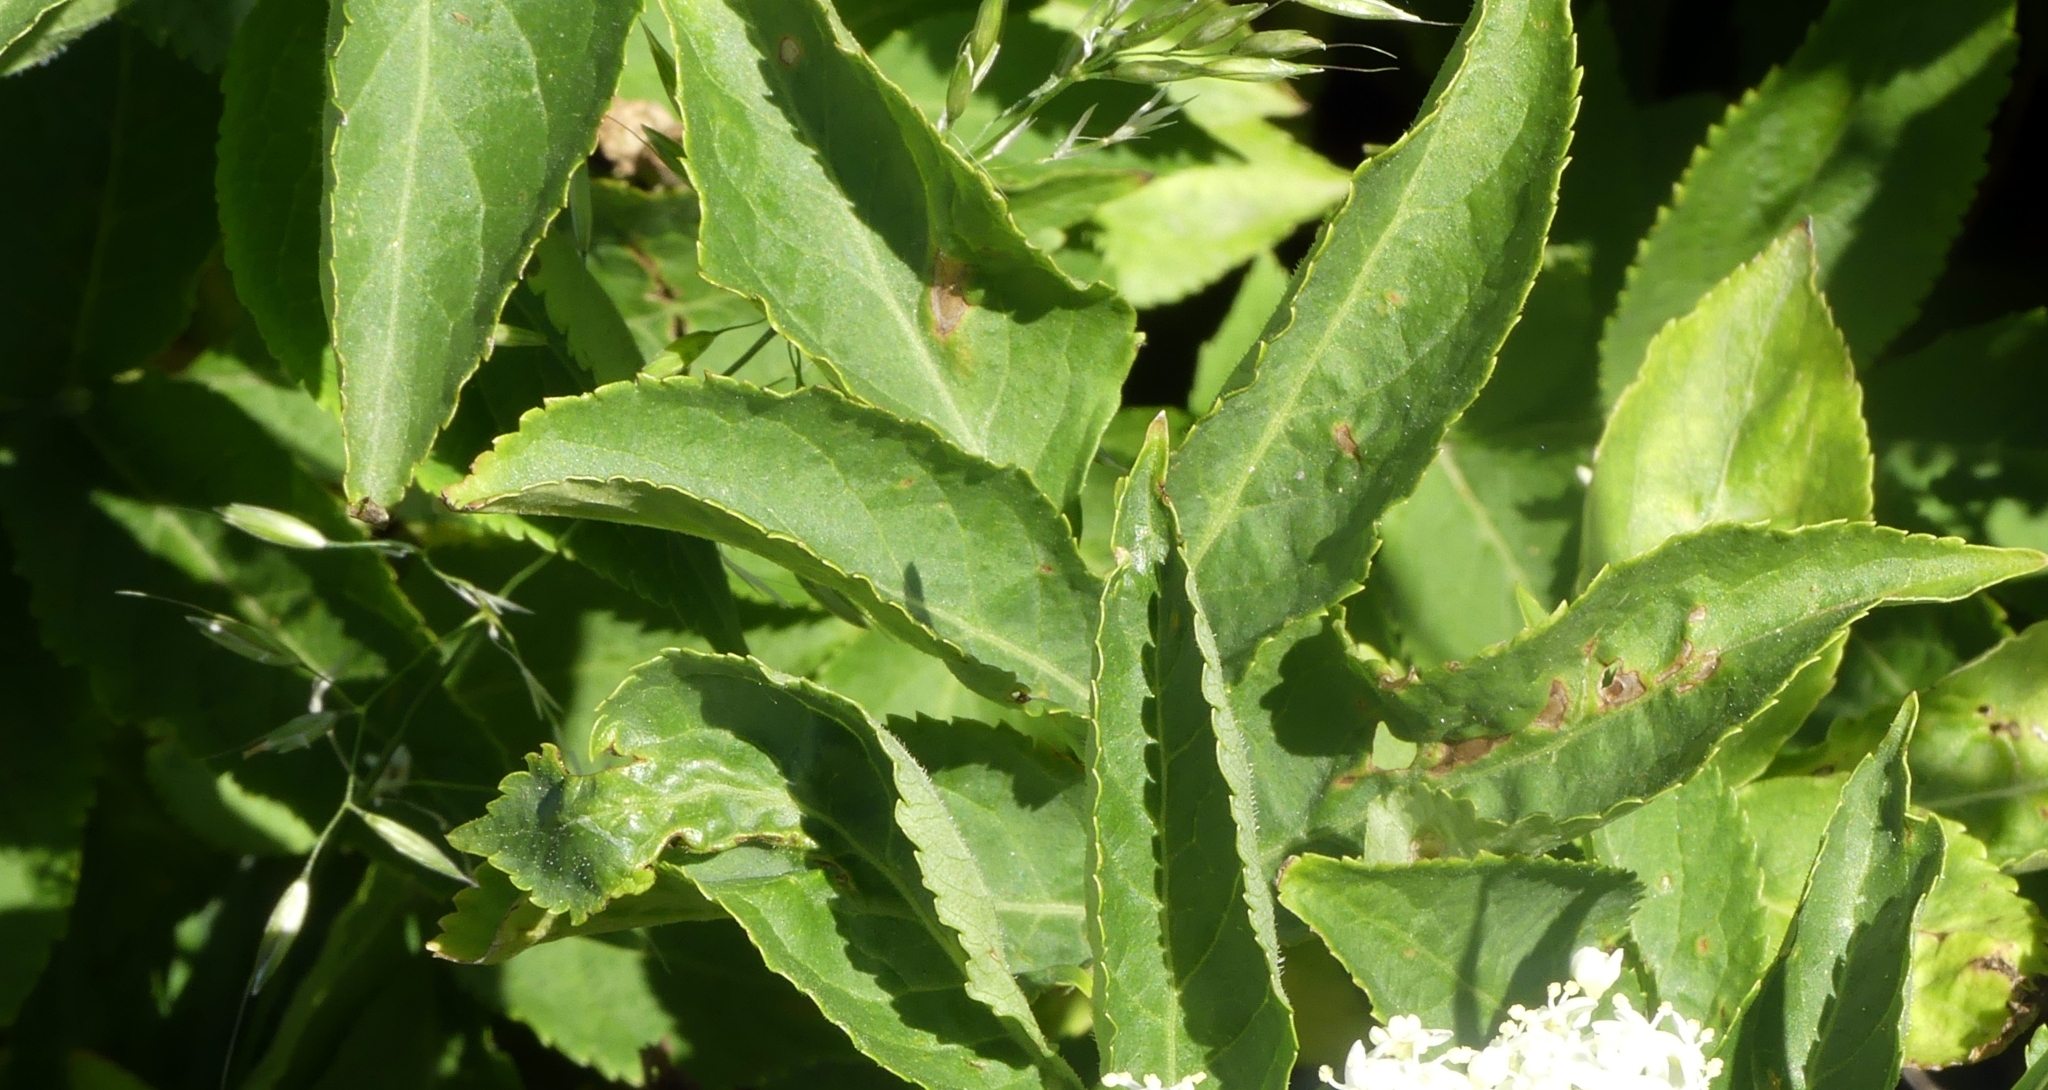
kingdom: Plantae
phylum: Tracheophyta
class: Magnoliopsida
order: Dipsacales
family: Viburnaceae
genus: Sambucus
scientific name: Sambucus nigra
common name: Elder
